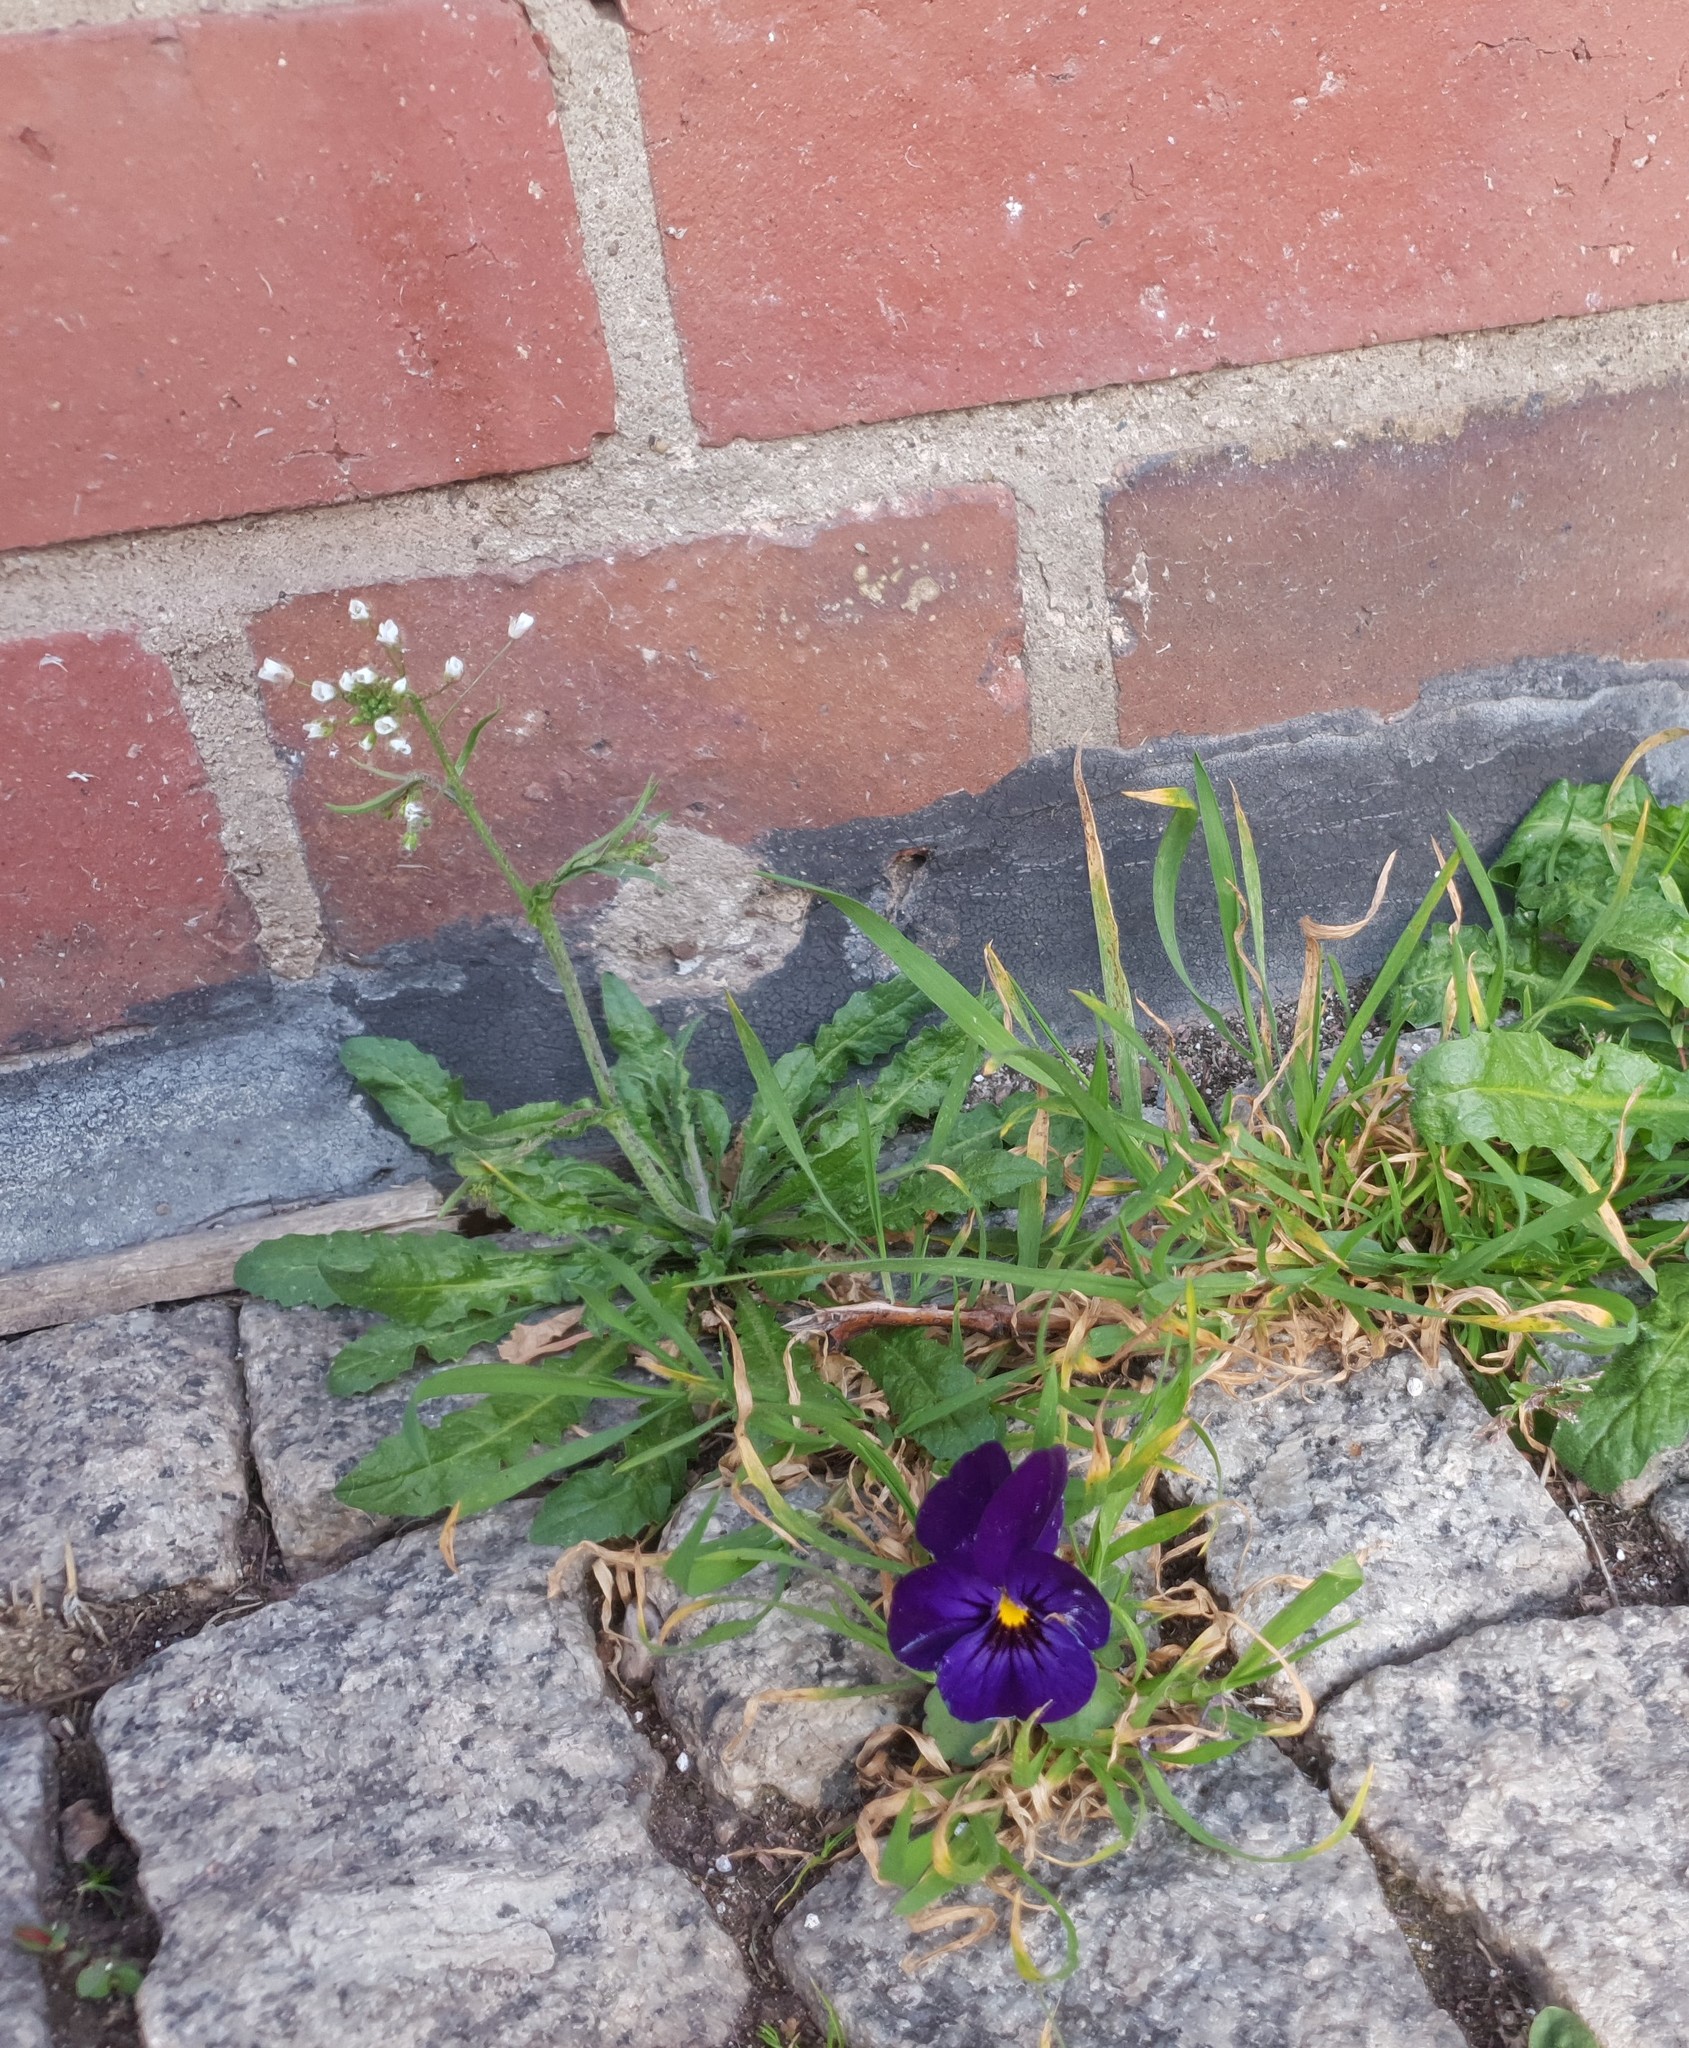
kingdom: Plantae
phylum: Tracheophyta
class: Magnoliopsida
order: Malpighiales
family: Violaceae
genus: Viola
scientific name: Viola wittrockiana
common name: Garden pansy
